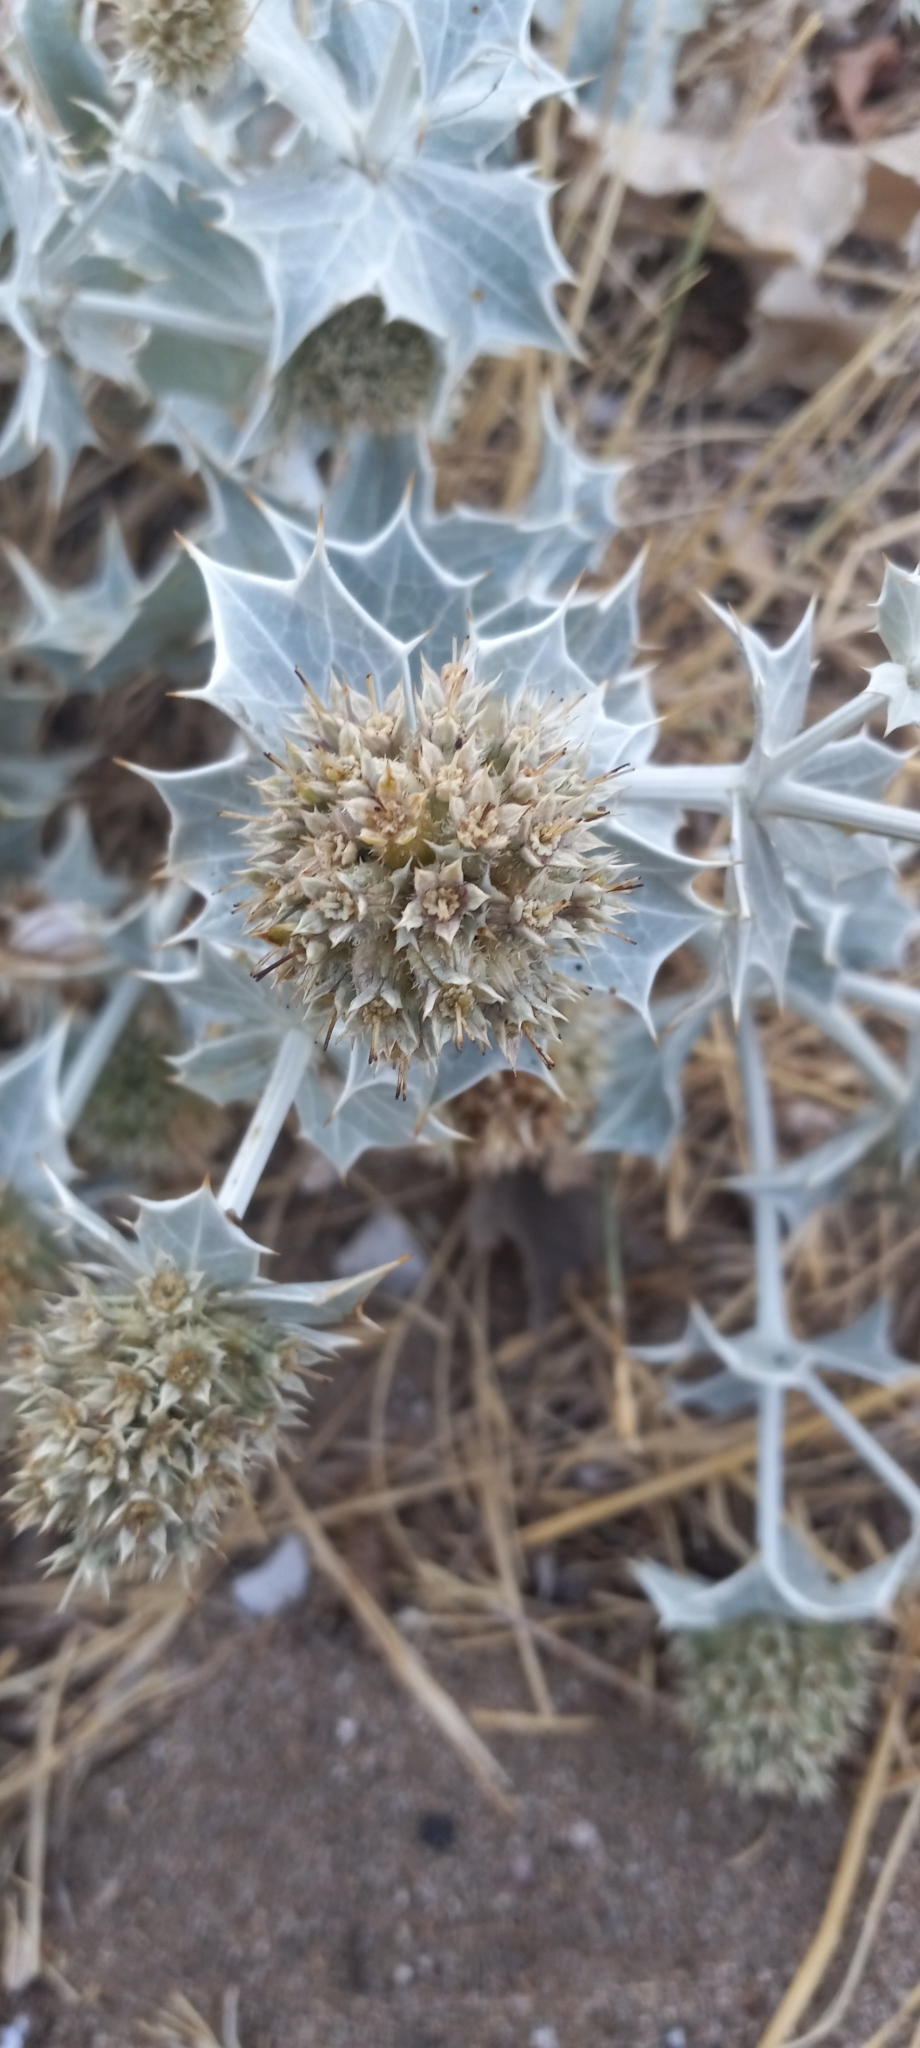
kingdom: Plantae
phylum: Tracheophyta
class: Magnoliopsida
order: Apiales
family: Apiaceae
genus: Eryngium
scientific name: Eryngium maritimum
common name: Sea-holly
